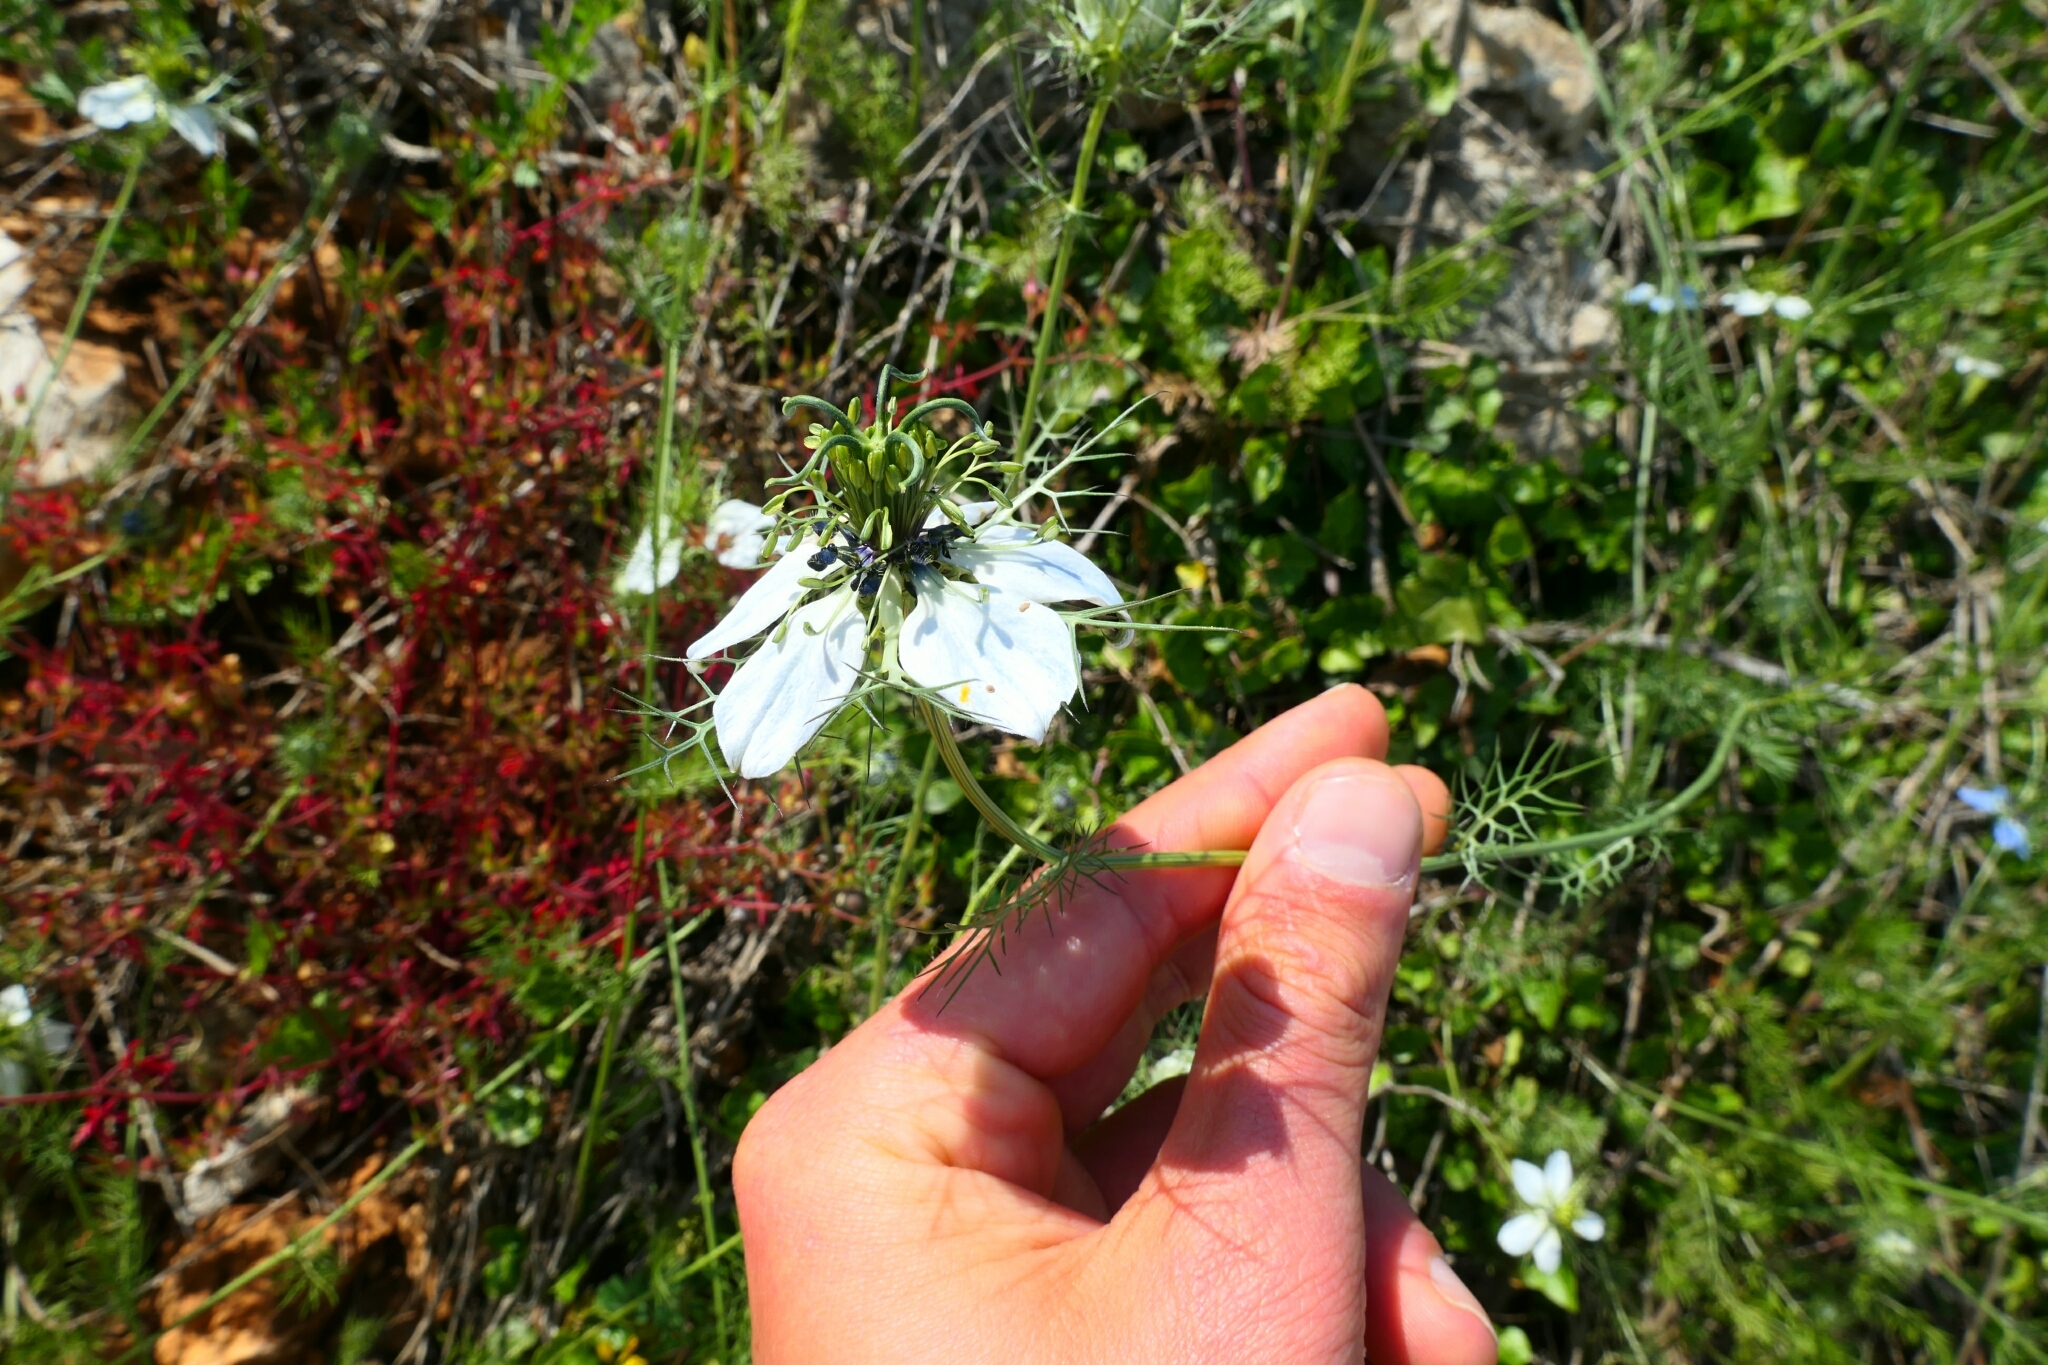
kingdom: Plantae
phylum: Tracheophyta
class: Magnoliopsida
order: Ranunculales
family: Ranunculaceae
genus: Nigella
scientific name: Nigella damascena
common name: Love-in-a-mist
